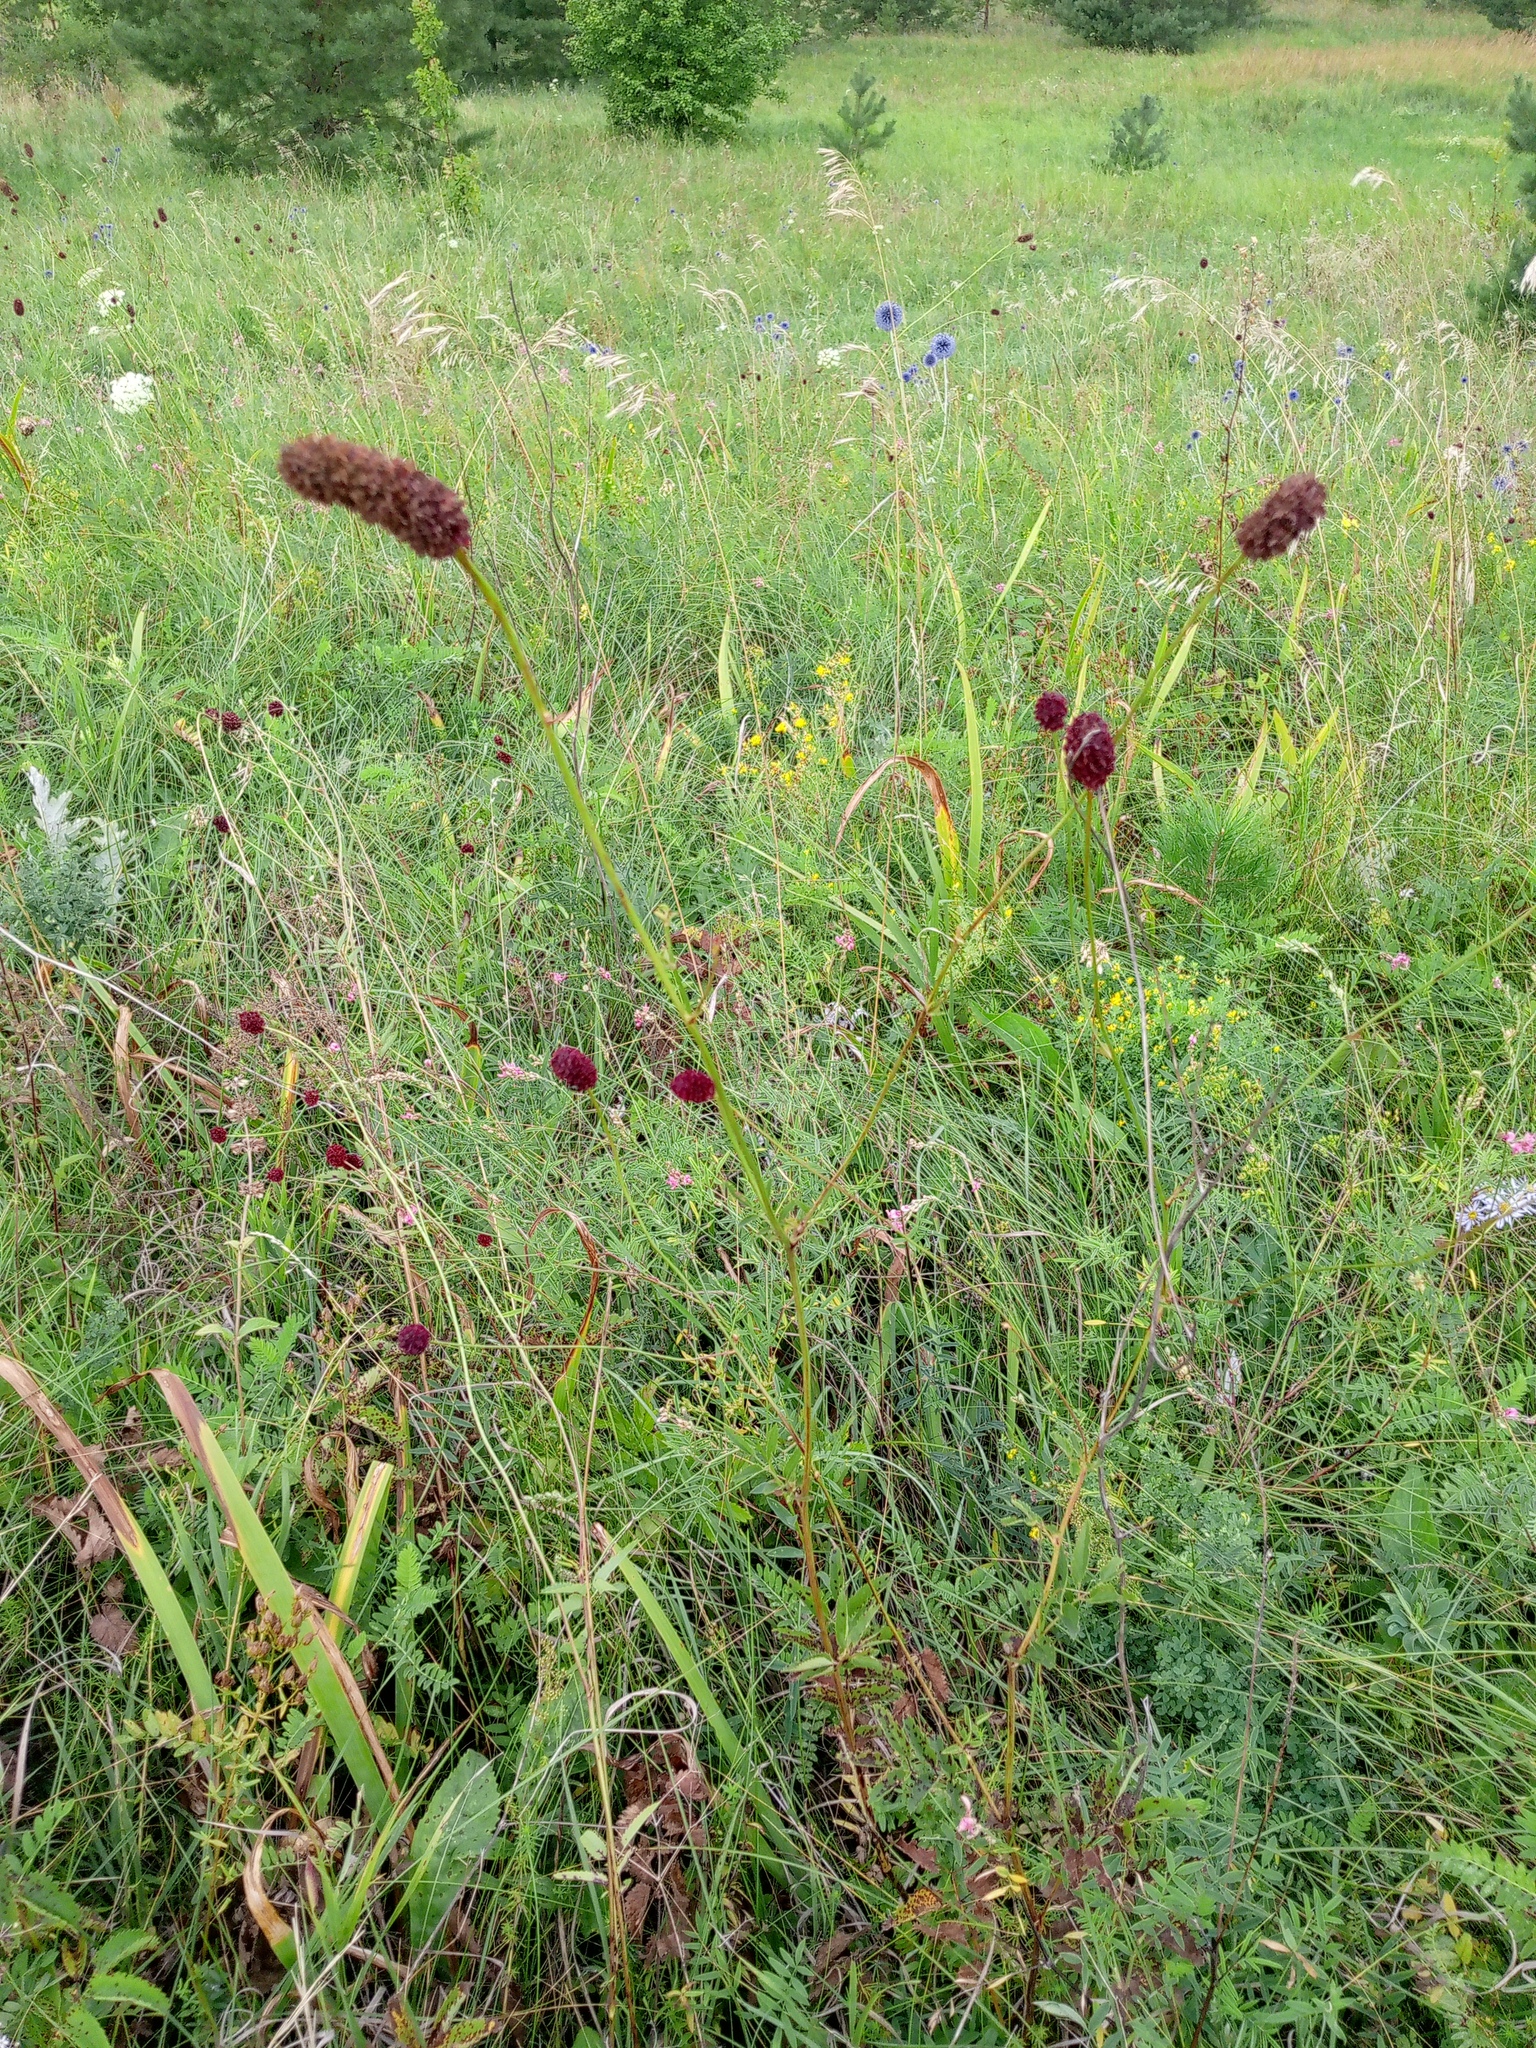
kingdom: Plantae
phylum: Tracheophyta
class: Magnoliopsida
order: Rosales
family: Rosaceae
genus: Sanguisorba
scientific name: Sanguisorba officinalis
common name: Great burnet
